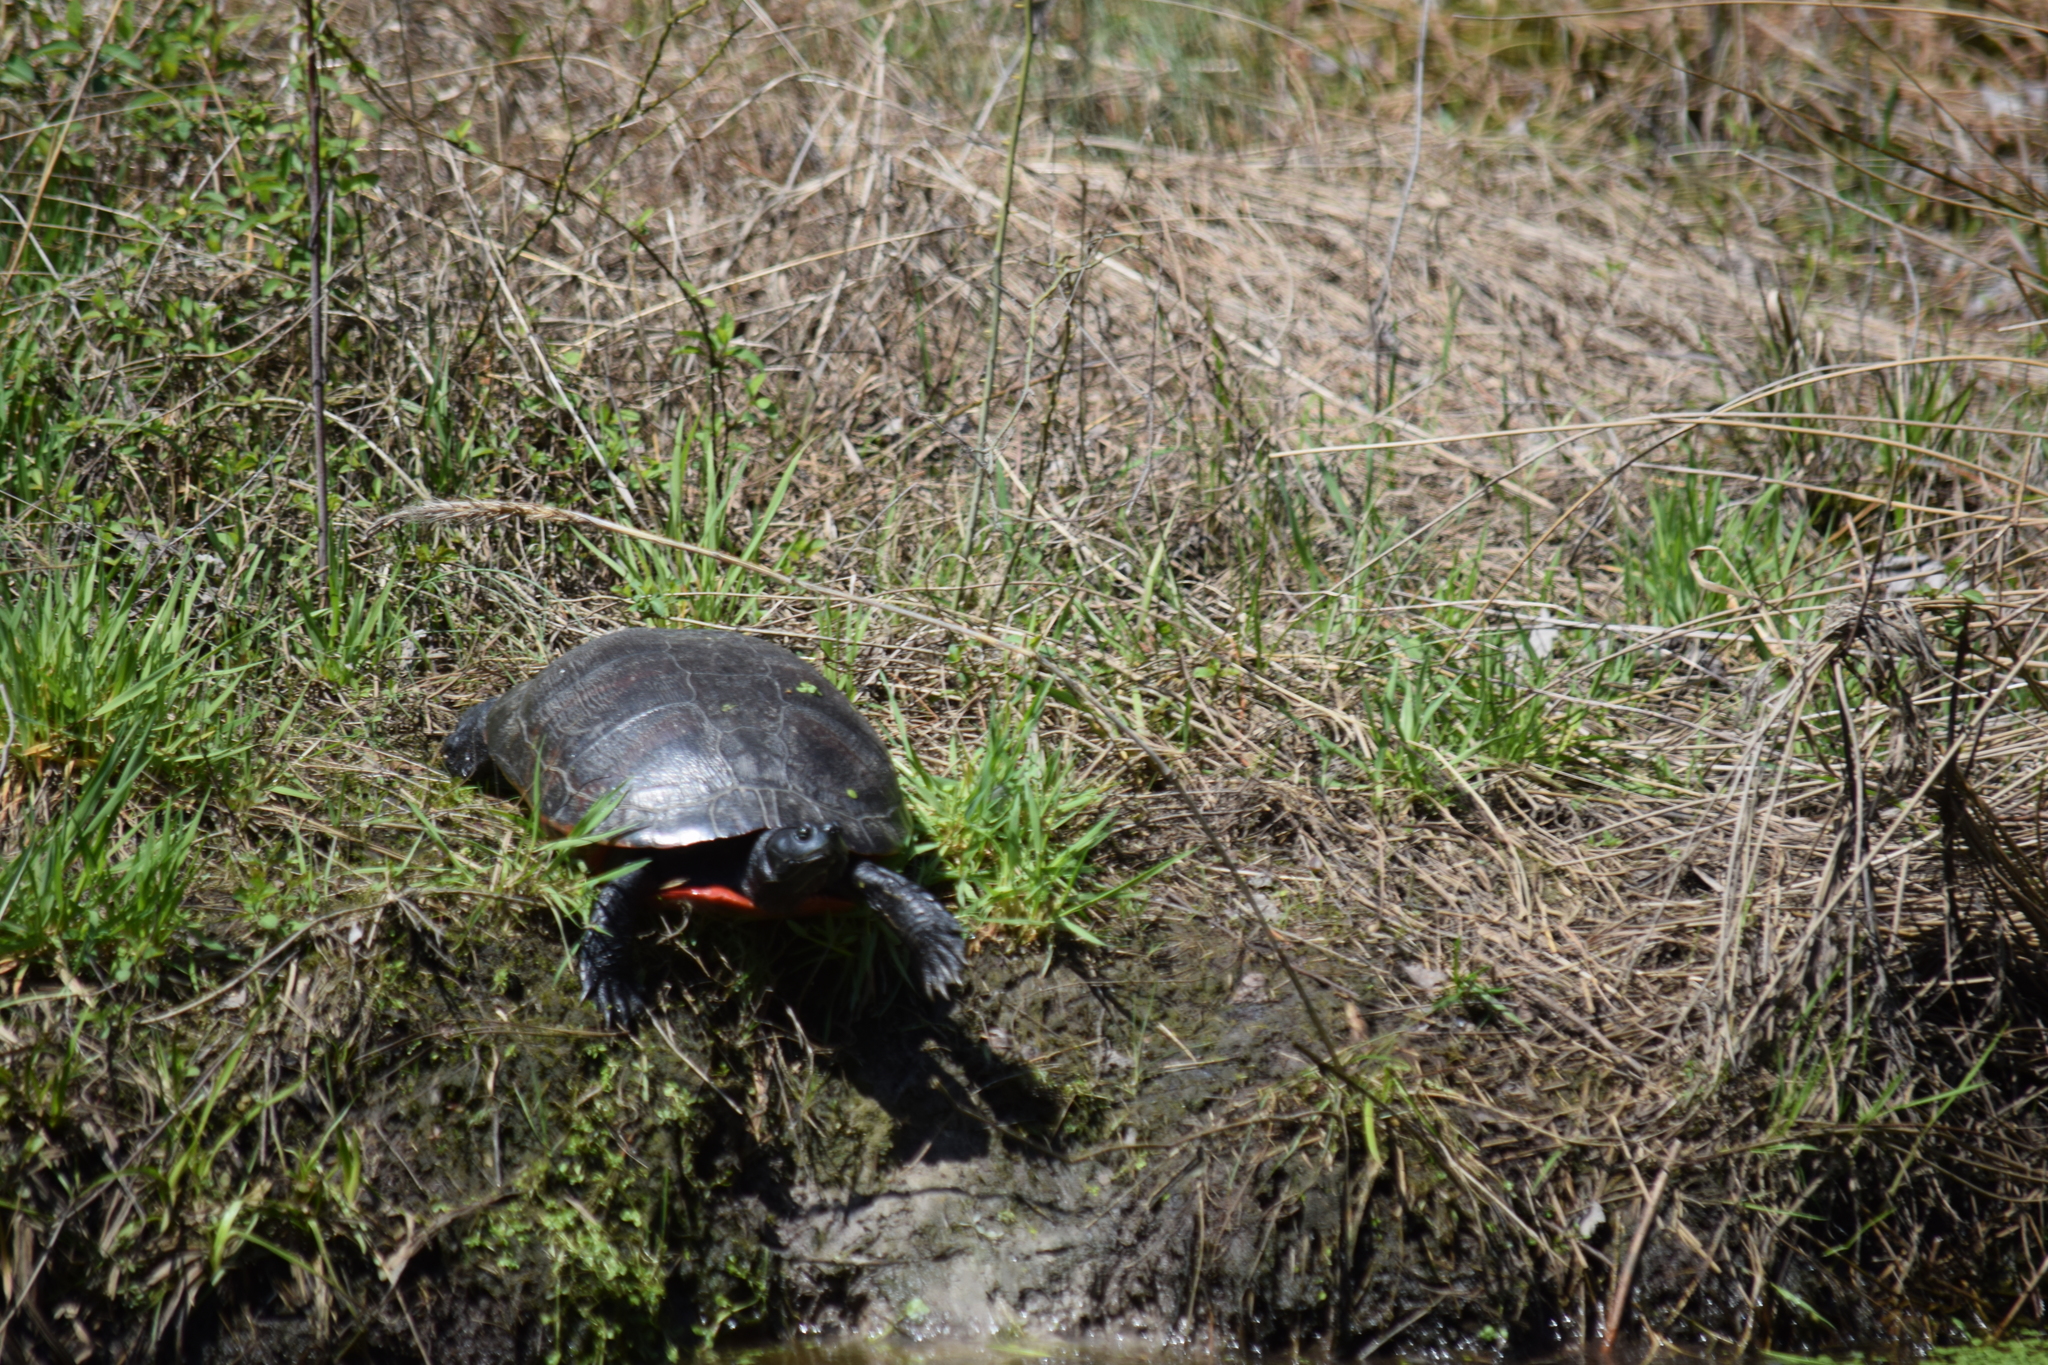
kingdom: Animalia
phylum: Chordata
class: Testudines
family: Emydidae
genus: Pseudemys
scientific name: Pseudemys rubriventris
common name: American red-bellied turtle
